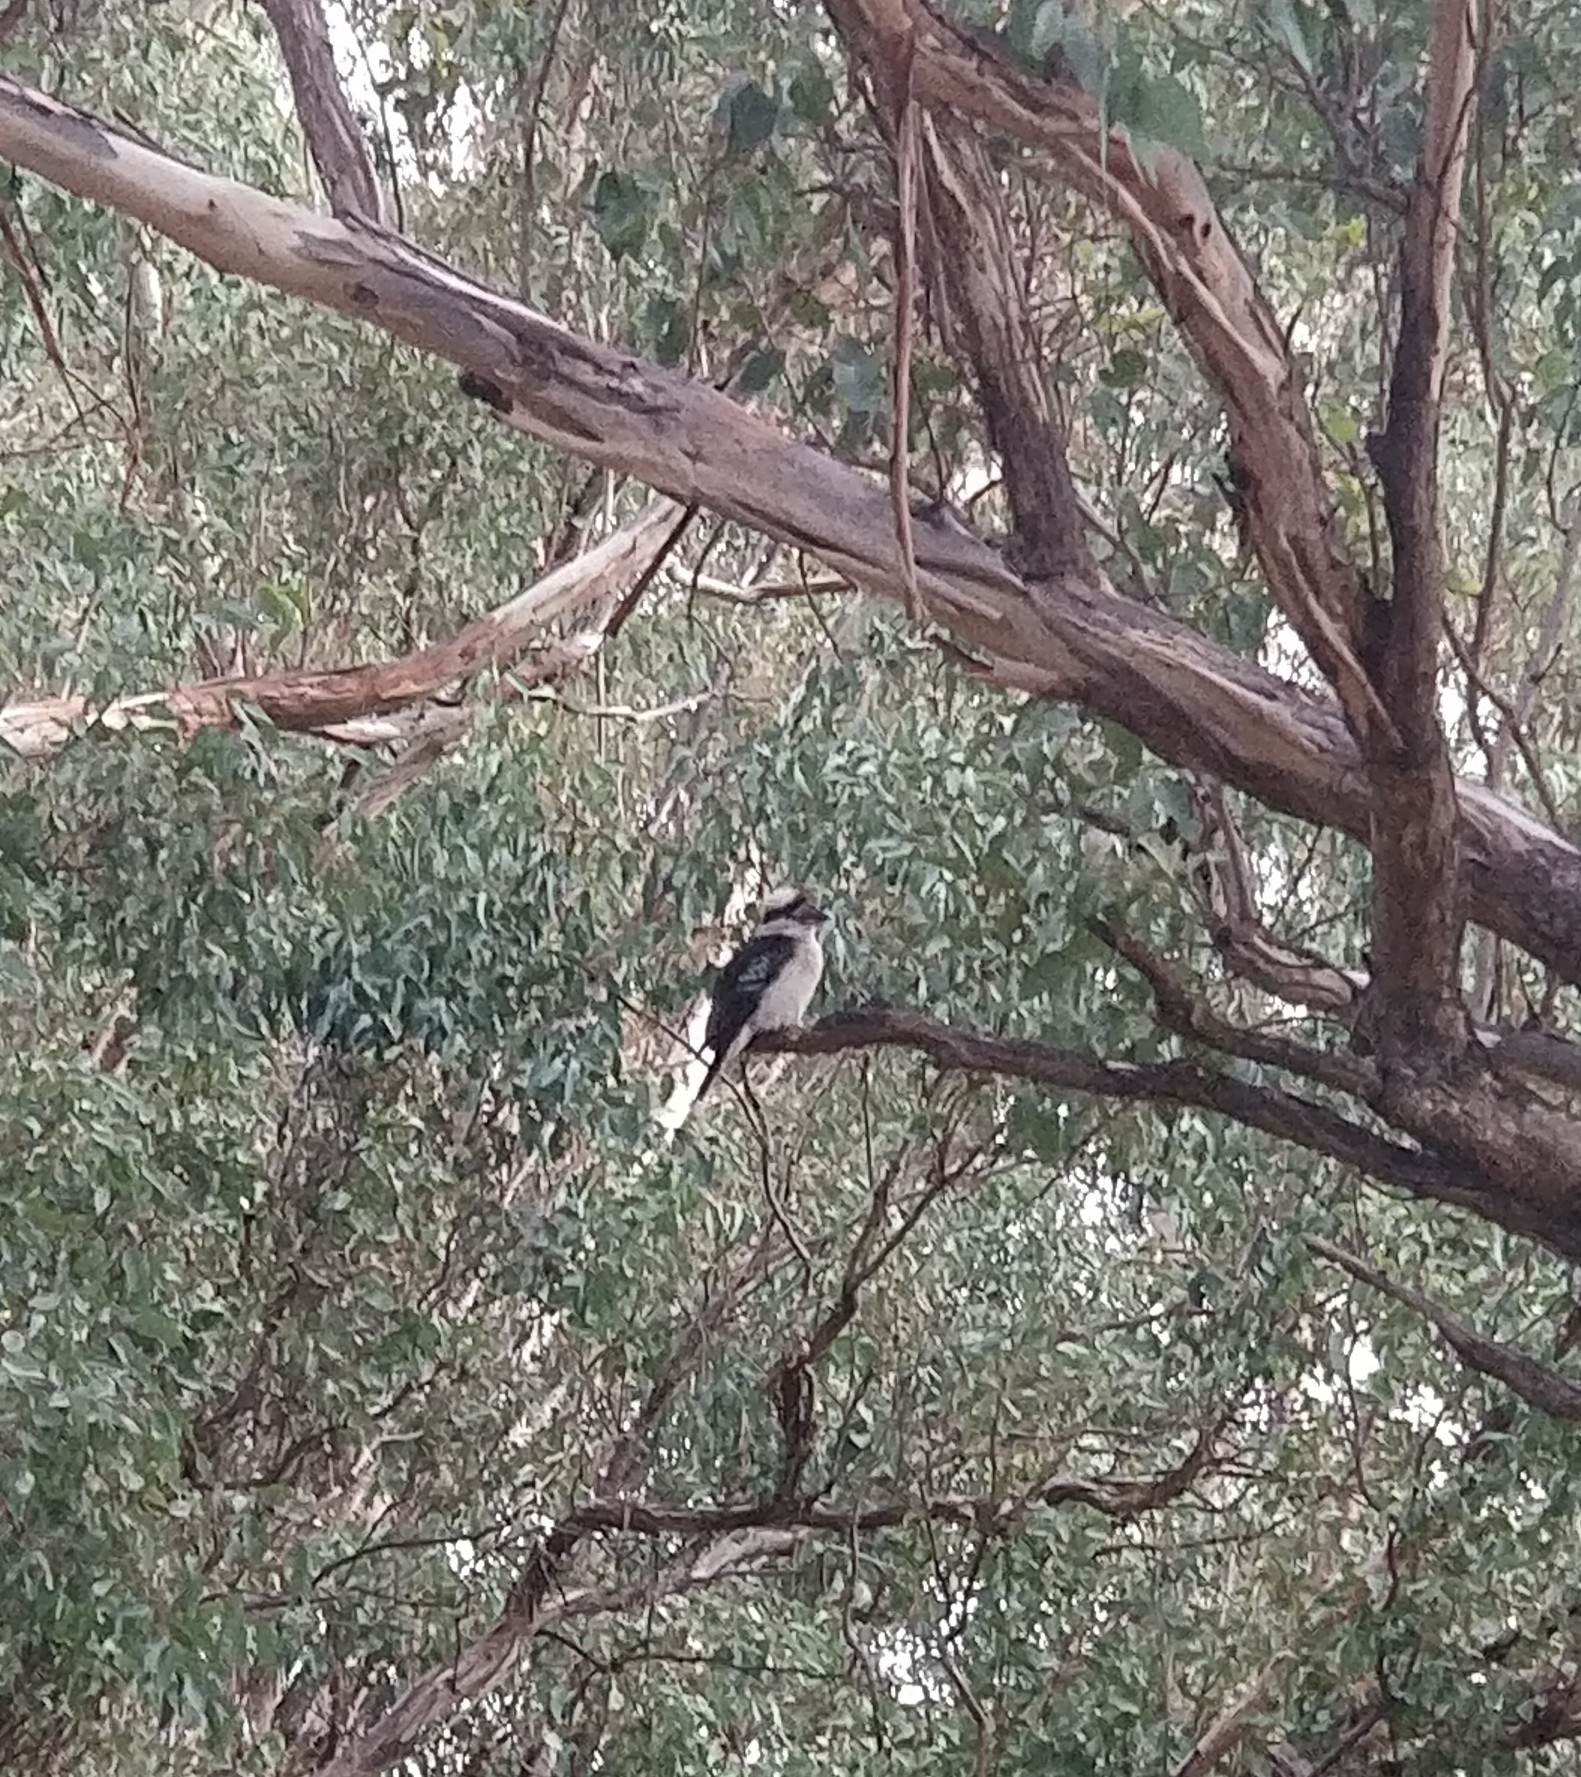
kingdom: Animalia
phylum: Chordata
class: Aves
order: Coraciiformes
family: Alcedinidae
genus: Dacelo
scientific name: Dacelo novaeguineae
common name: Laughing kookaburra
